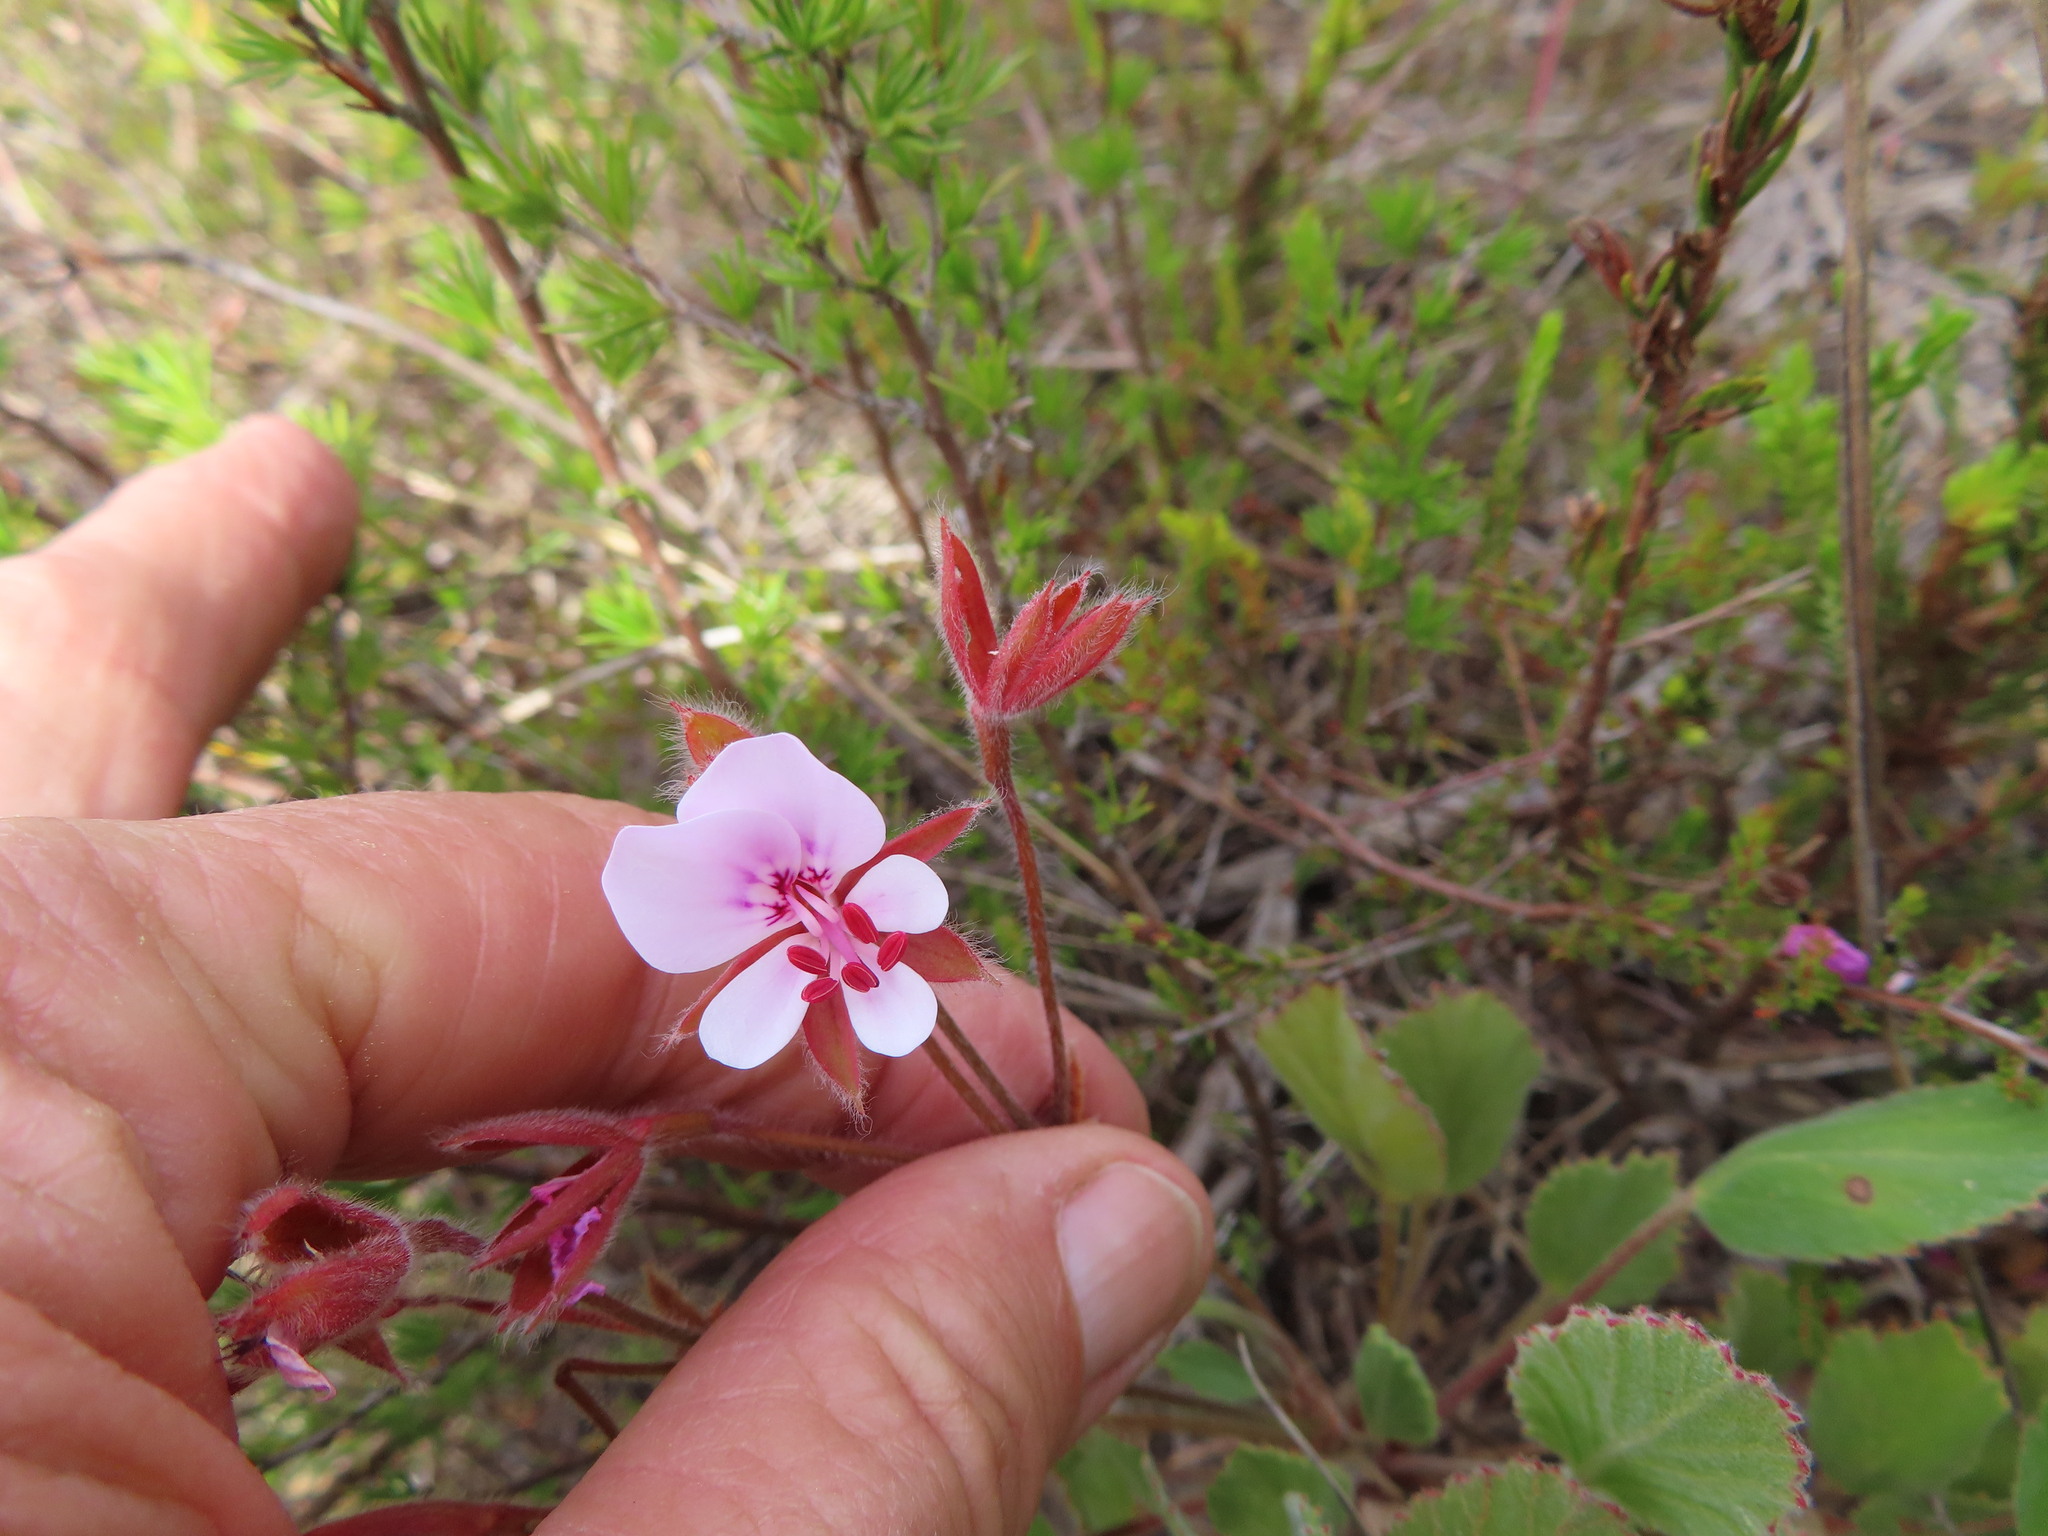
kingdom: Plantae
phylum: Tracheophyta
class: Magnoliopsida
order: Geraniales
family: Geraniaceae
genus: Pelargonium
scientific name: Pelargonium ovale
